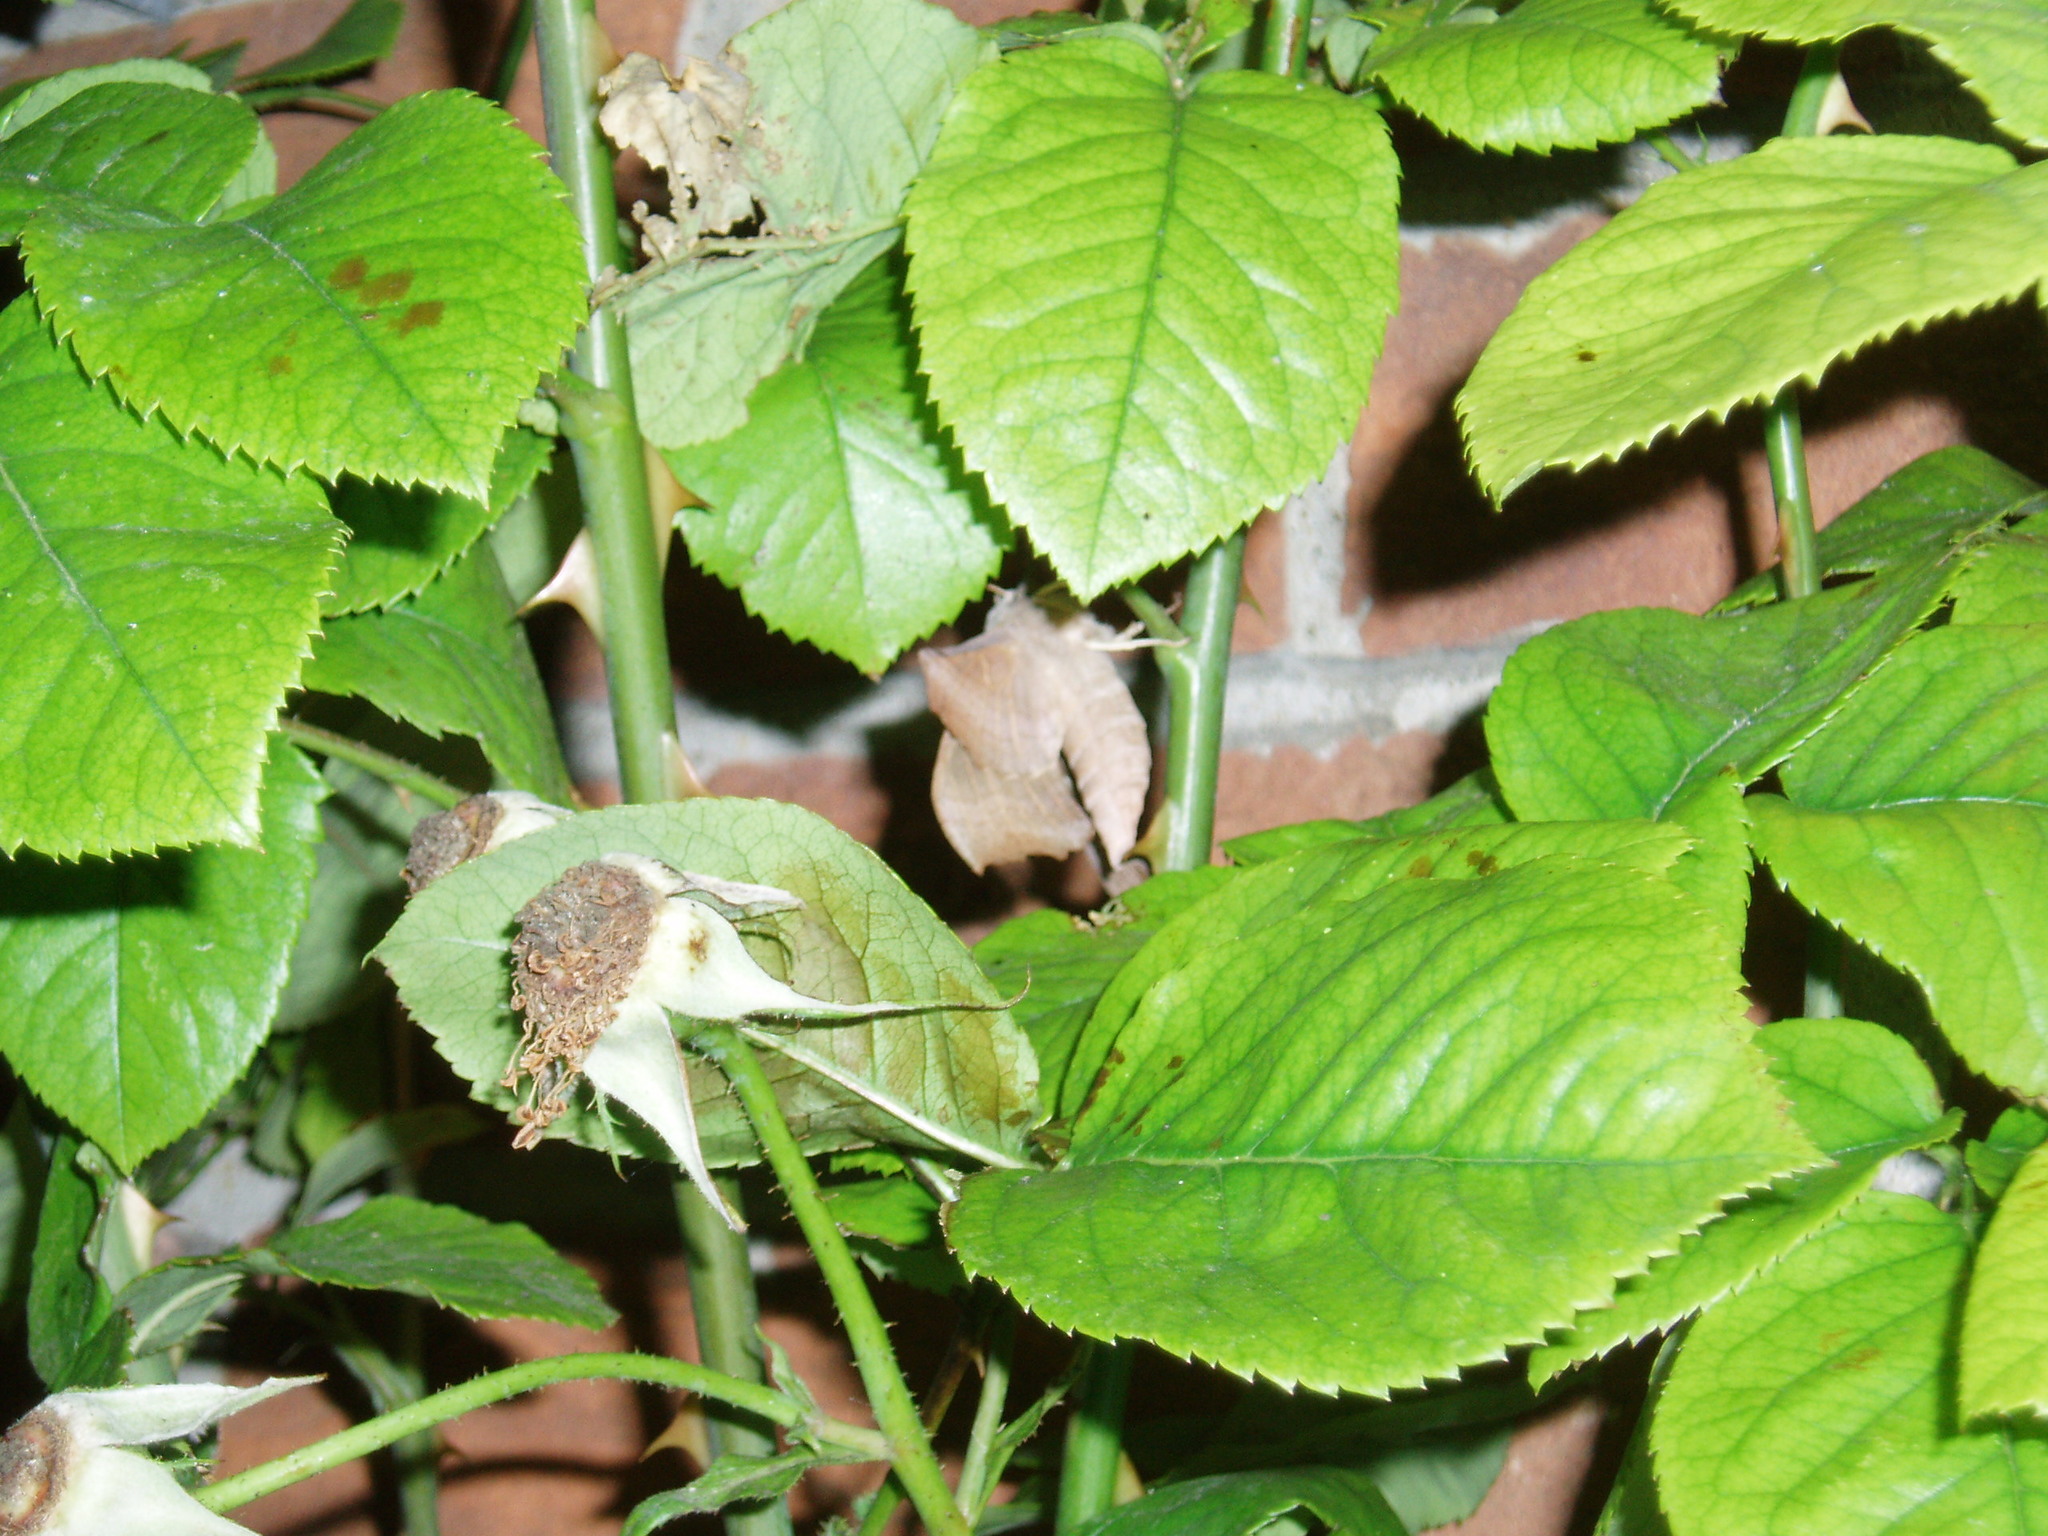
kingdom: Animalia
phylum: Arthropoda
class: Insecta
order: Lepidoptera
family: Sphingidae
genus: Laothoe
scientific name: Laothoe populi
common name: Poplar hawk-moth
